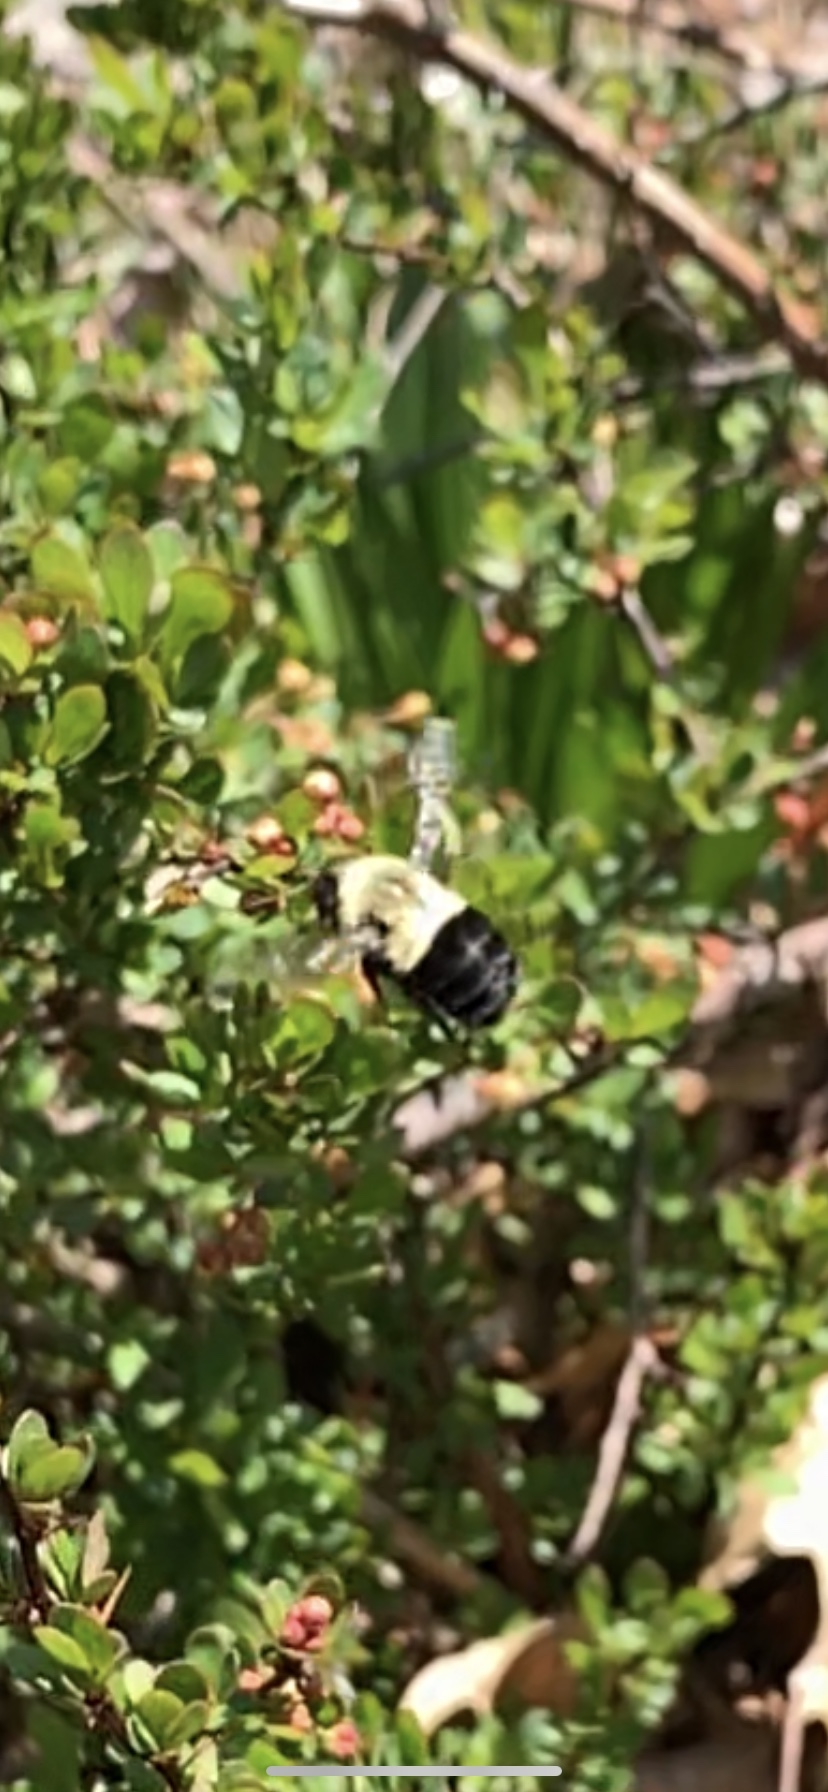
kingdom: Animalia
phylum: Arthropoda
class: Insecta
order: Hymenoptera
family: Apidae
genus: Bombus
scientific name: Bombus impatiens
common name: Common eastern bumble bee
